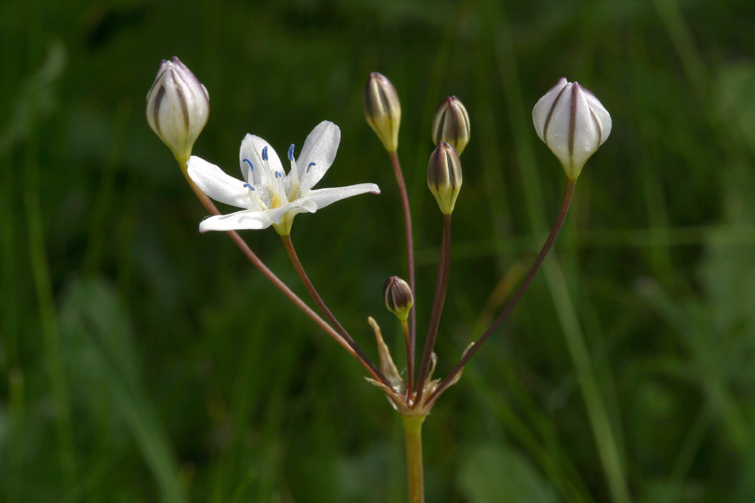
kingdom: Plantae
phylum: Tracheophyta
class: Liliopsida
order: Asparagales
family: Asparagaceae
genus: Triteleia
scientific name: Triteleia lilacina
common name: Lilac-flower wild hyacinth
